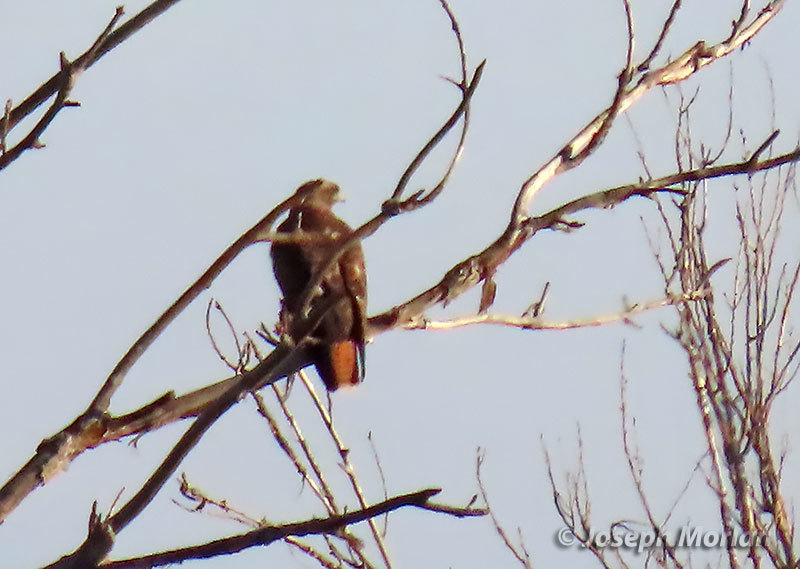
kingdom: Animalia
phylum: Chordata
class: Aves
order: Accipitriformes
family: Accipitridae
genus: Buteo
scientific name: Buteo jamaicensis
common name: Red-tailed hawk
